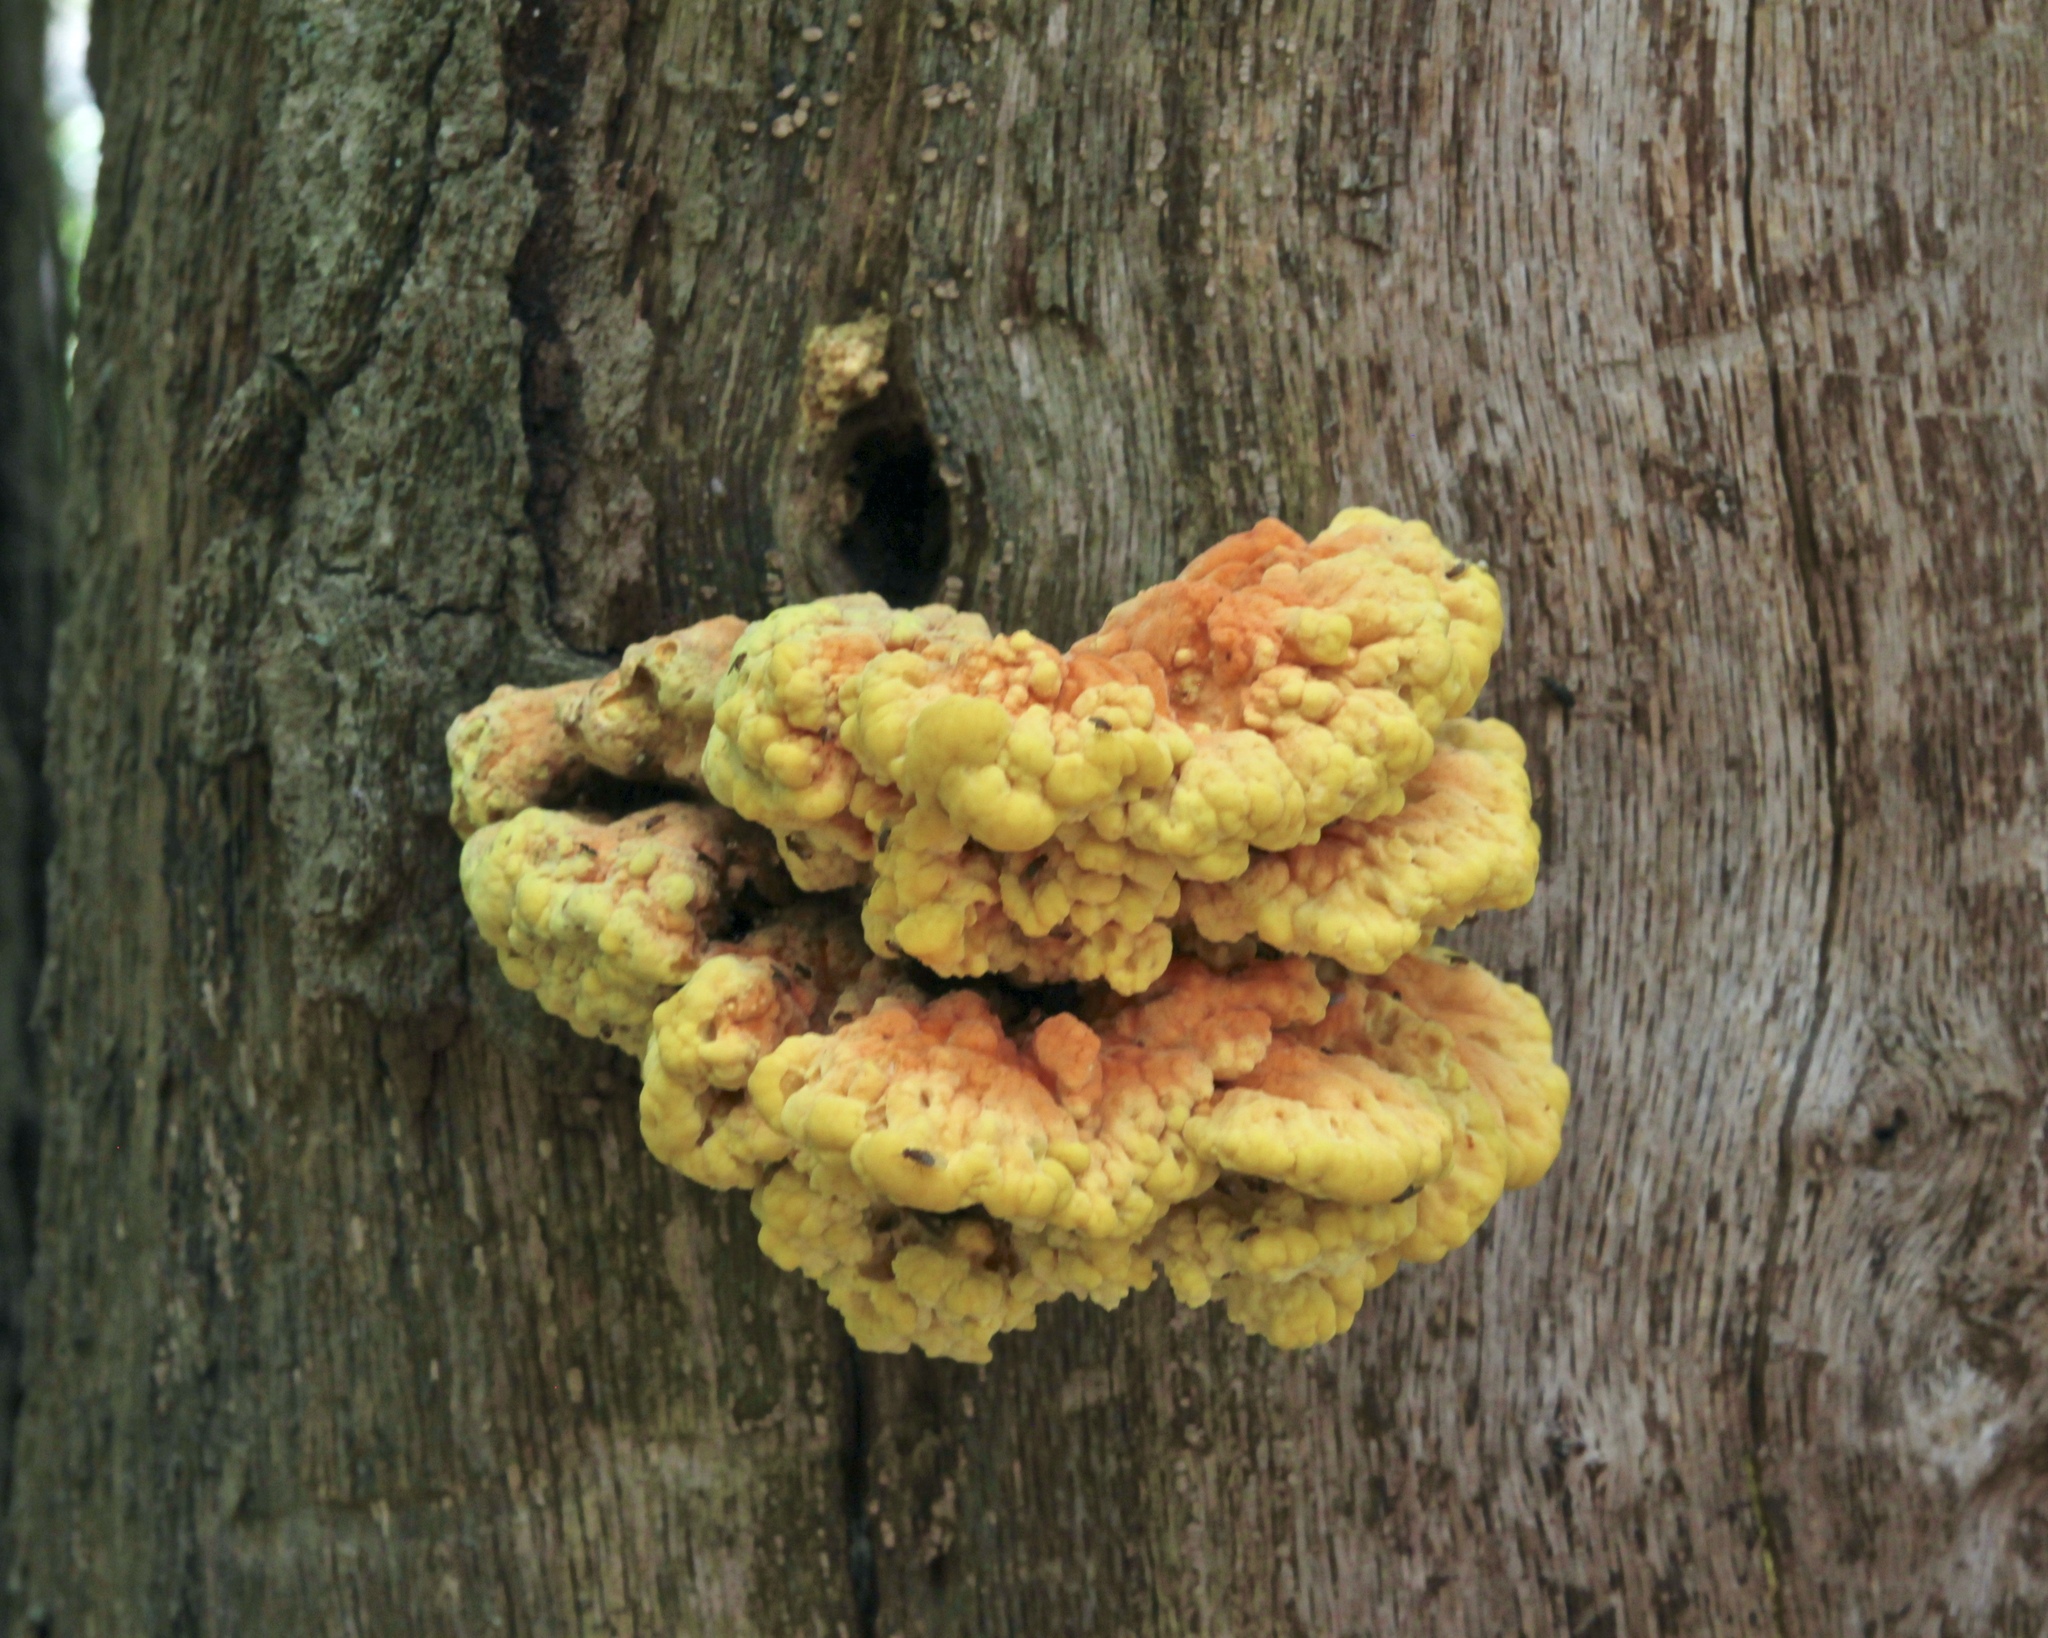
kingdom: Fungi
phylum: Basidiomycota
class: Agaricomycetes
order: Polyporales
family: Laetiporaceae
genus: Laetiporus
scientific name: Laetiporus sulphureus
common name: Chicken of the woods
